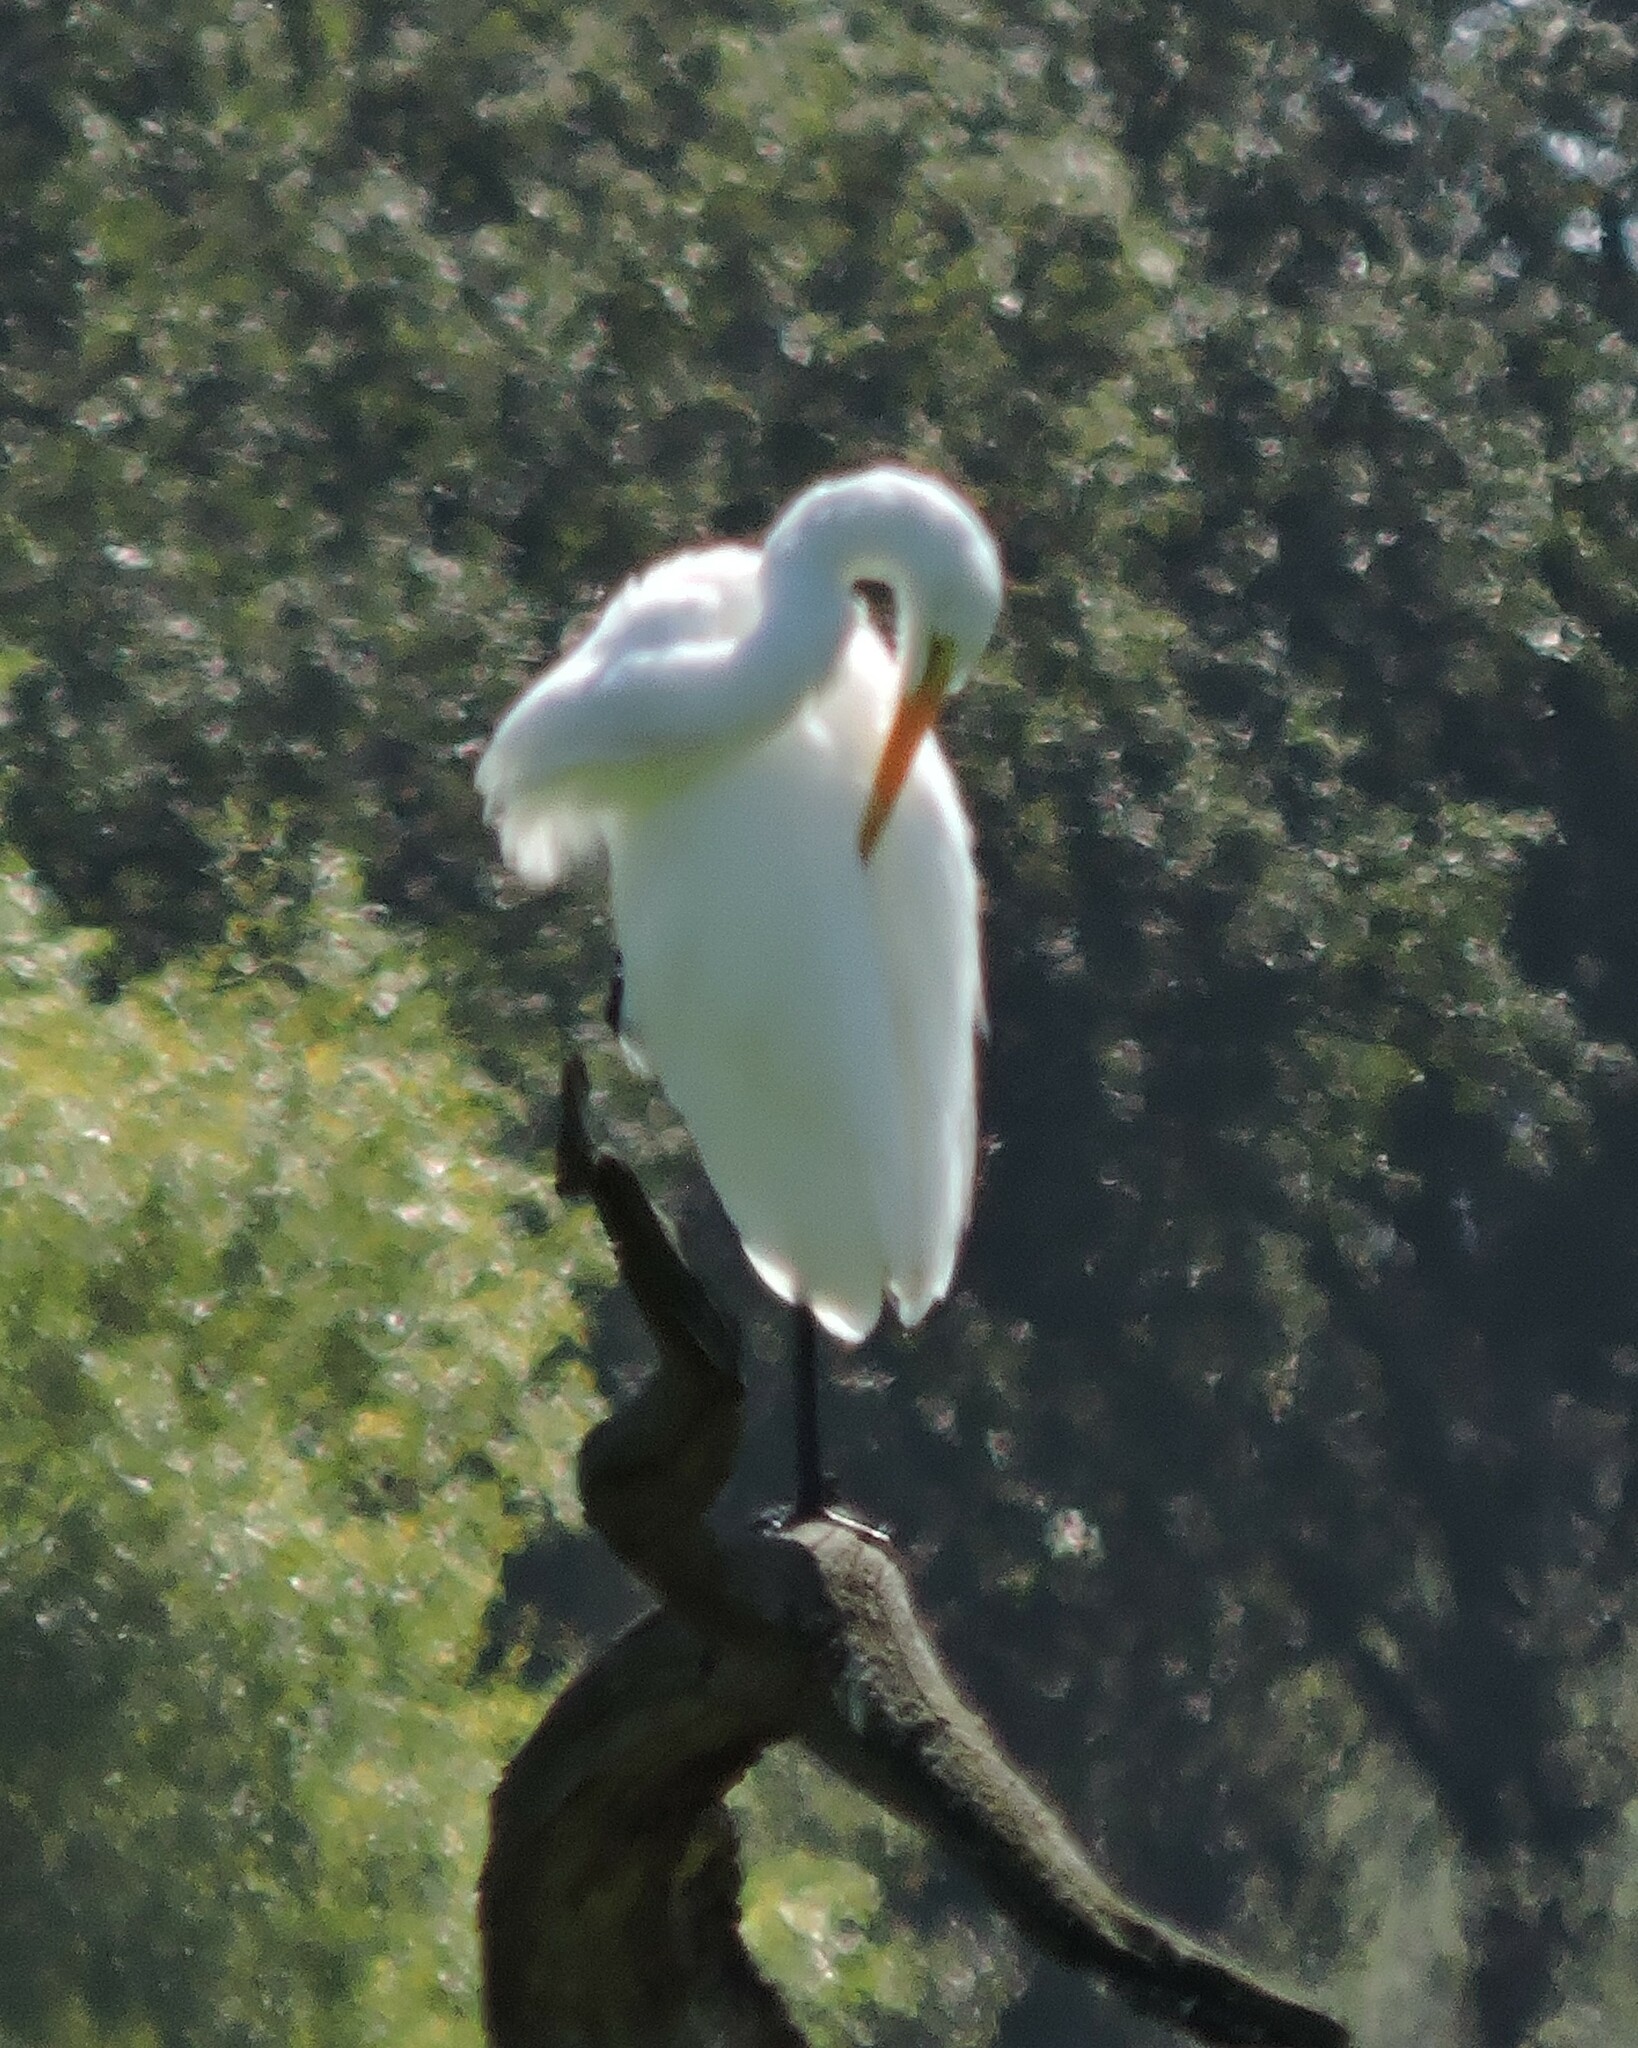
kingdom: Animalia
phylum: Chordata
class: Aves
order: Pelecaniformes
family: Ardeidae
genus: Ardea
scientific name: Ardea alba
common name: Great egret
